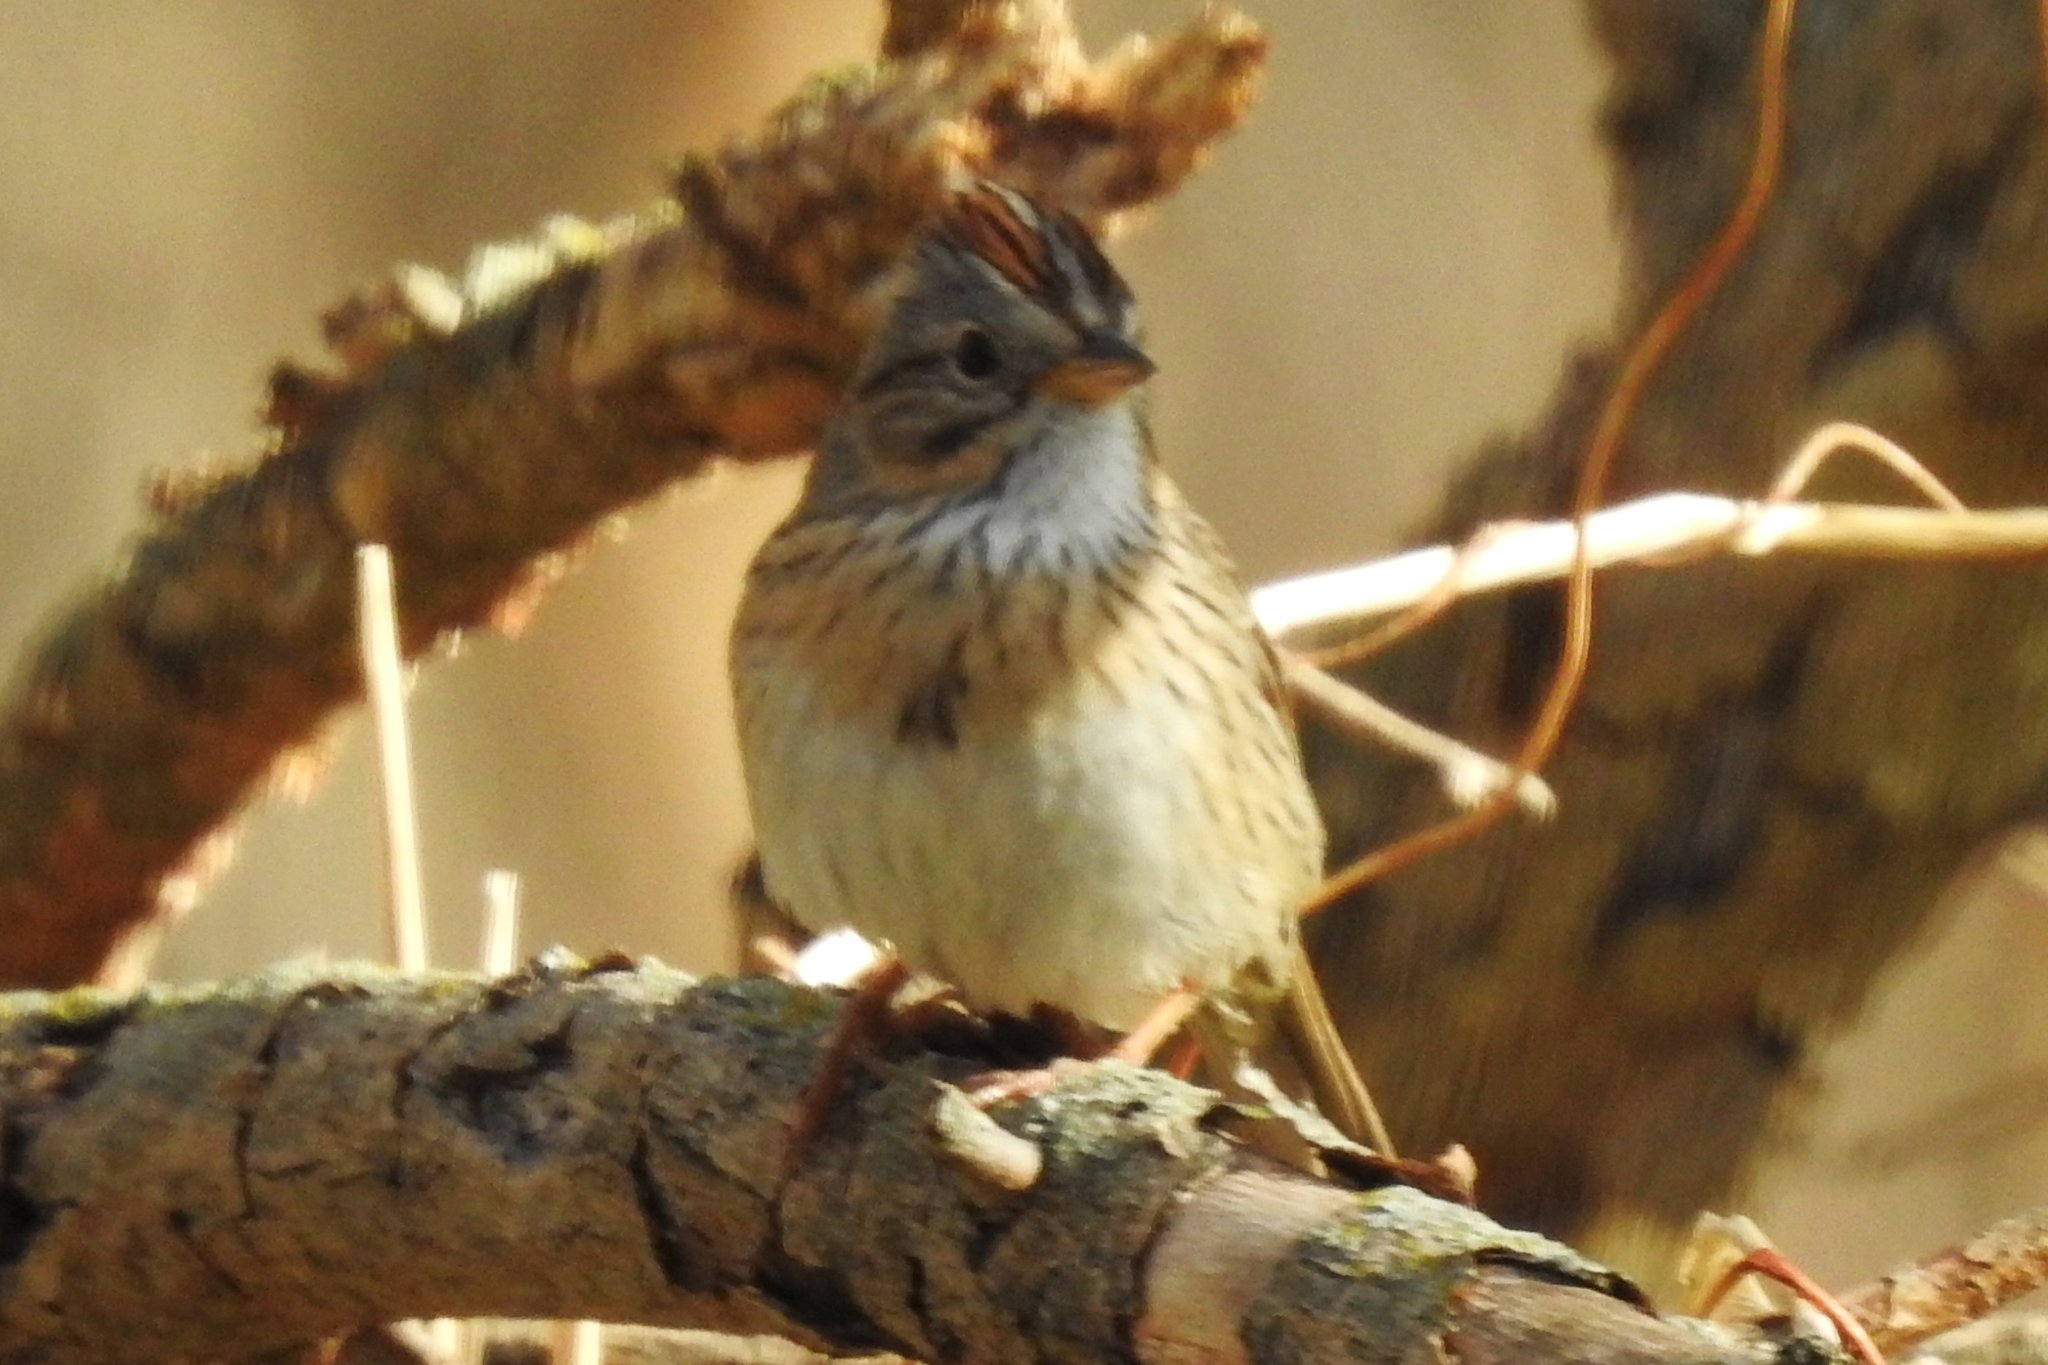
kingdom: Animalia
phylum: Chordata
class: Aves
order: Passeriformes
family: Passerellidae
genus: Melospiza
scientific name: Melospiza lincolnii
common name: Lincoln's sparrow
